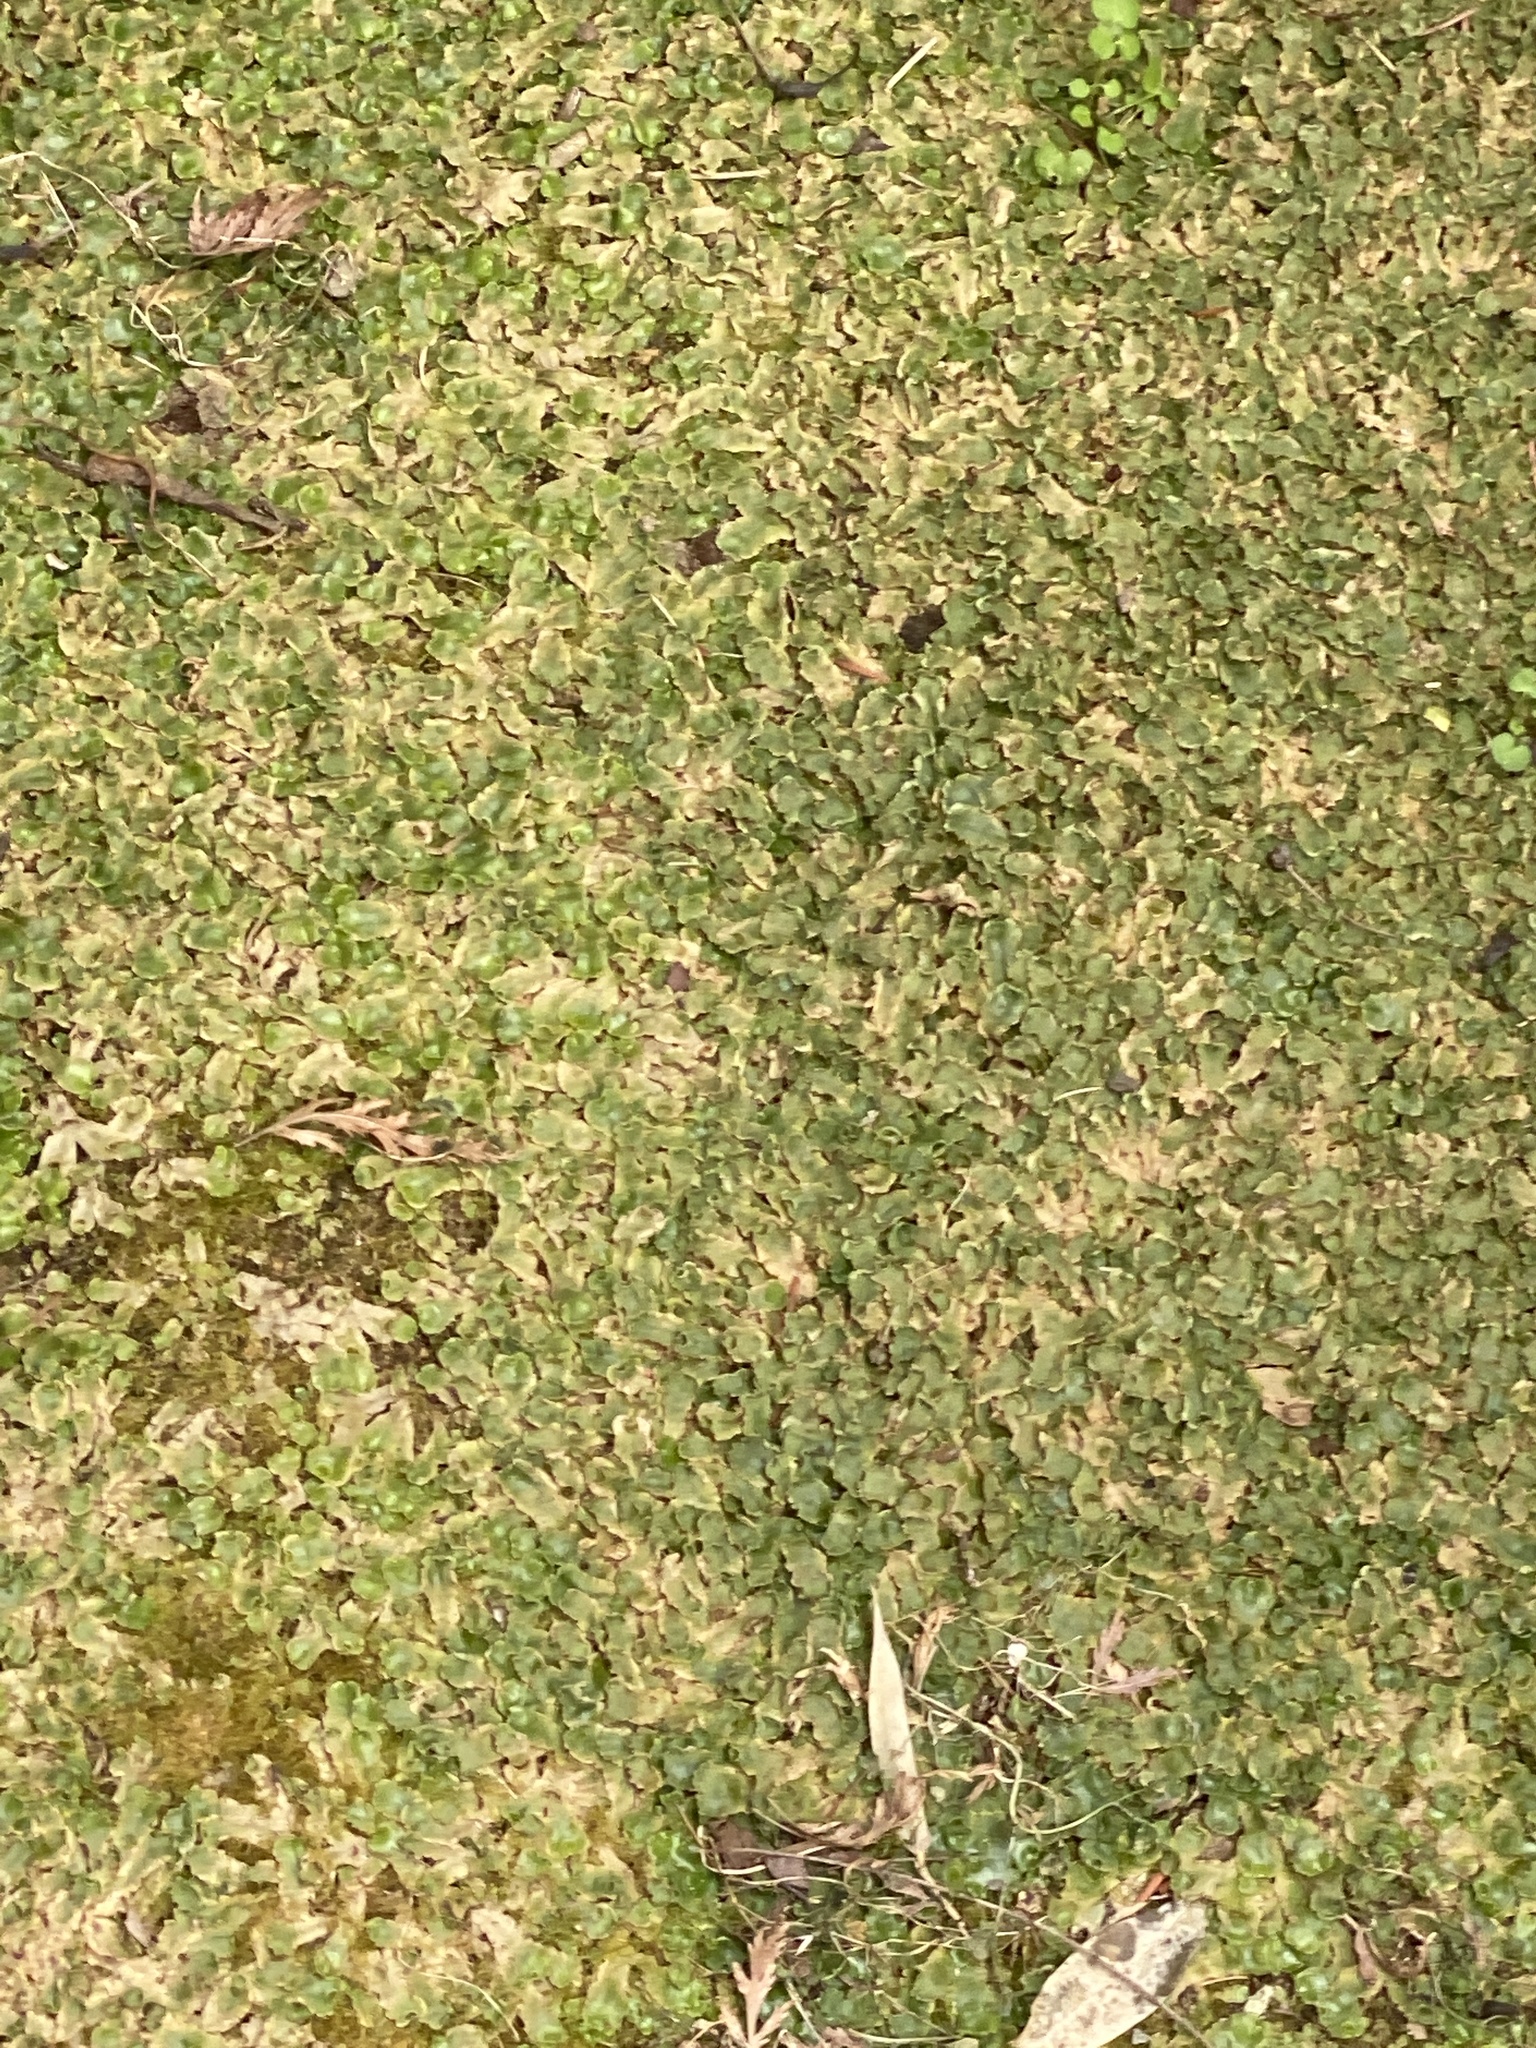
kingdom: Plantae
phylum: Marchantiophyta
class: Marchantiopsida
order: Lunulariales
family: Lunulariaceae
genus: Lunularia
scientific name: Lunularia cruciata
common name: Crescent-cup liverwort
